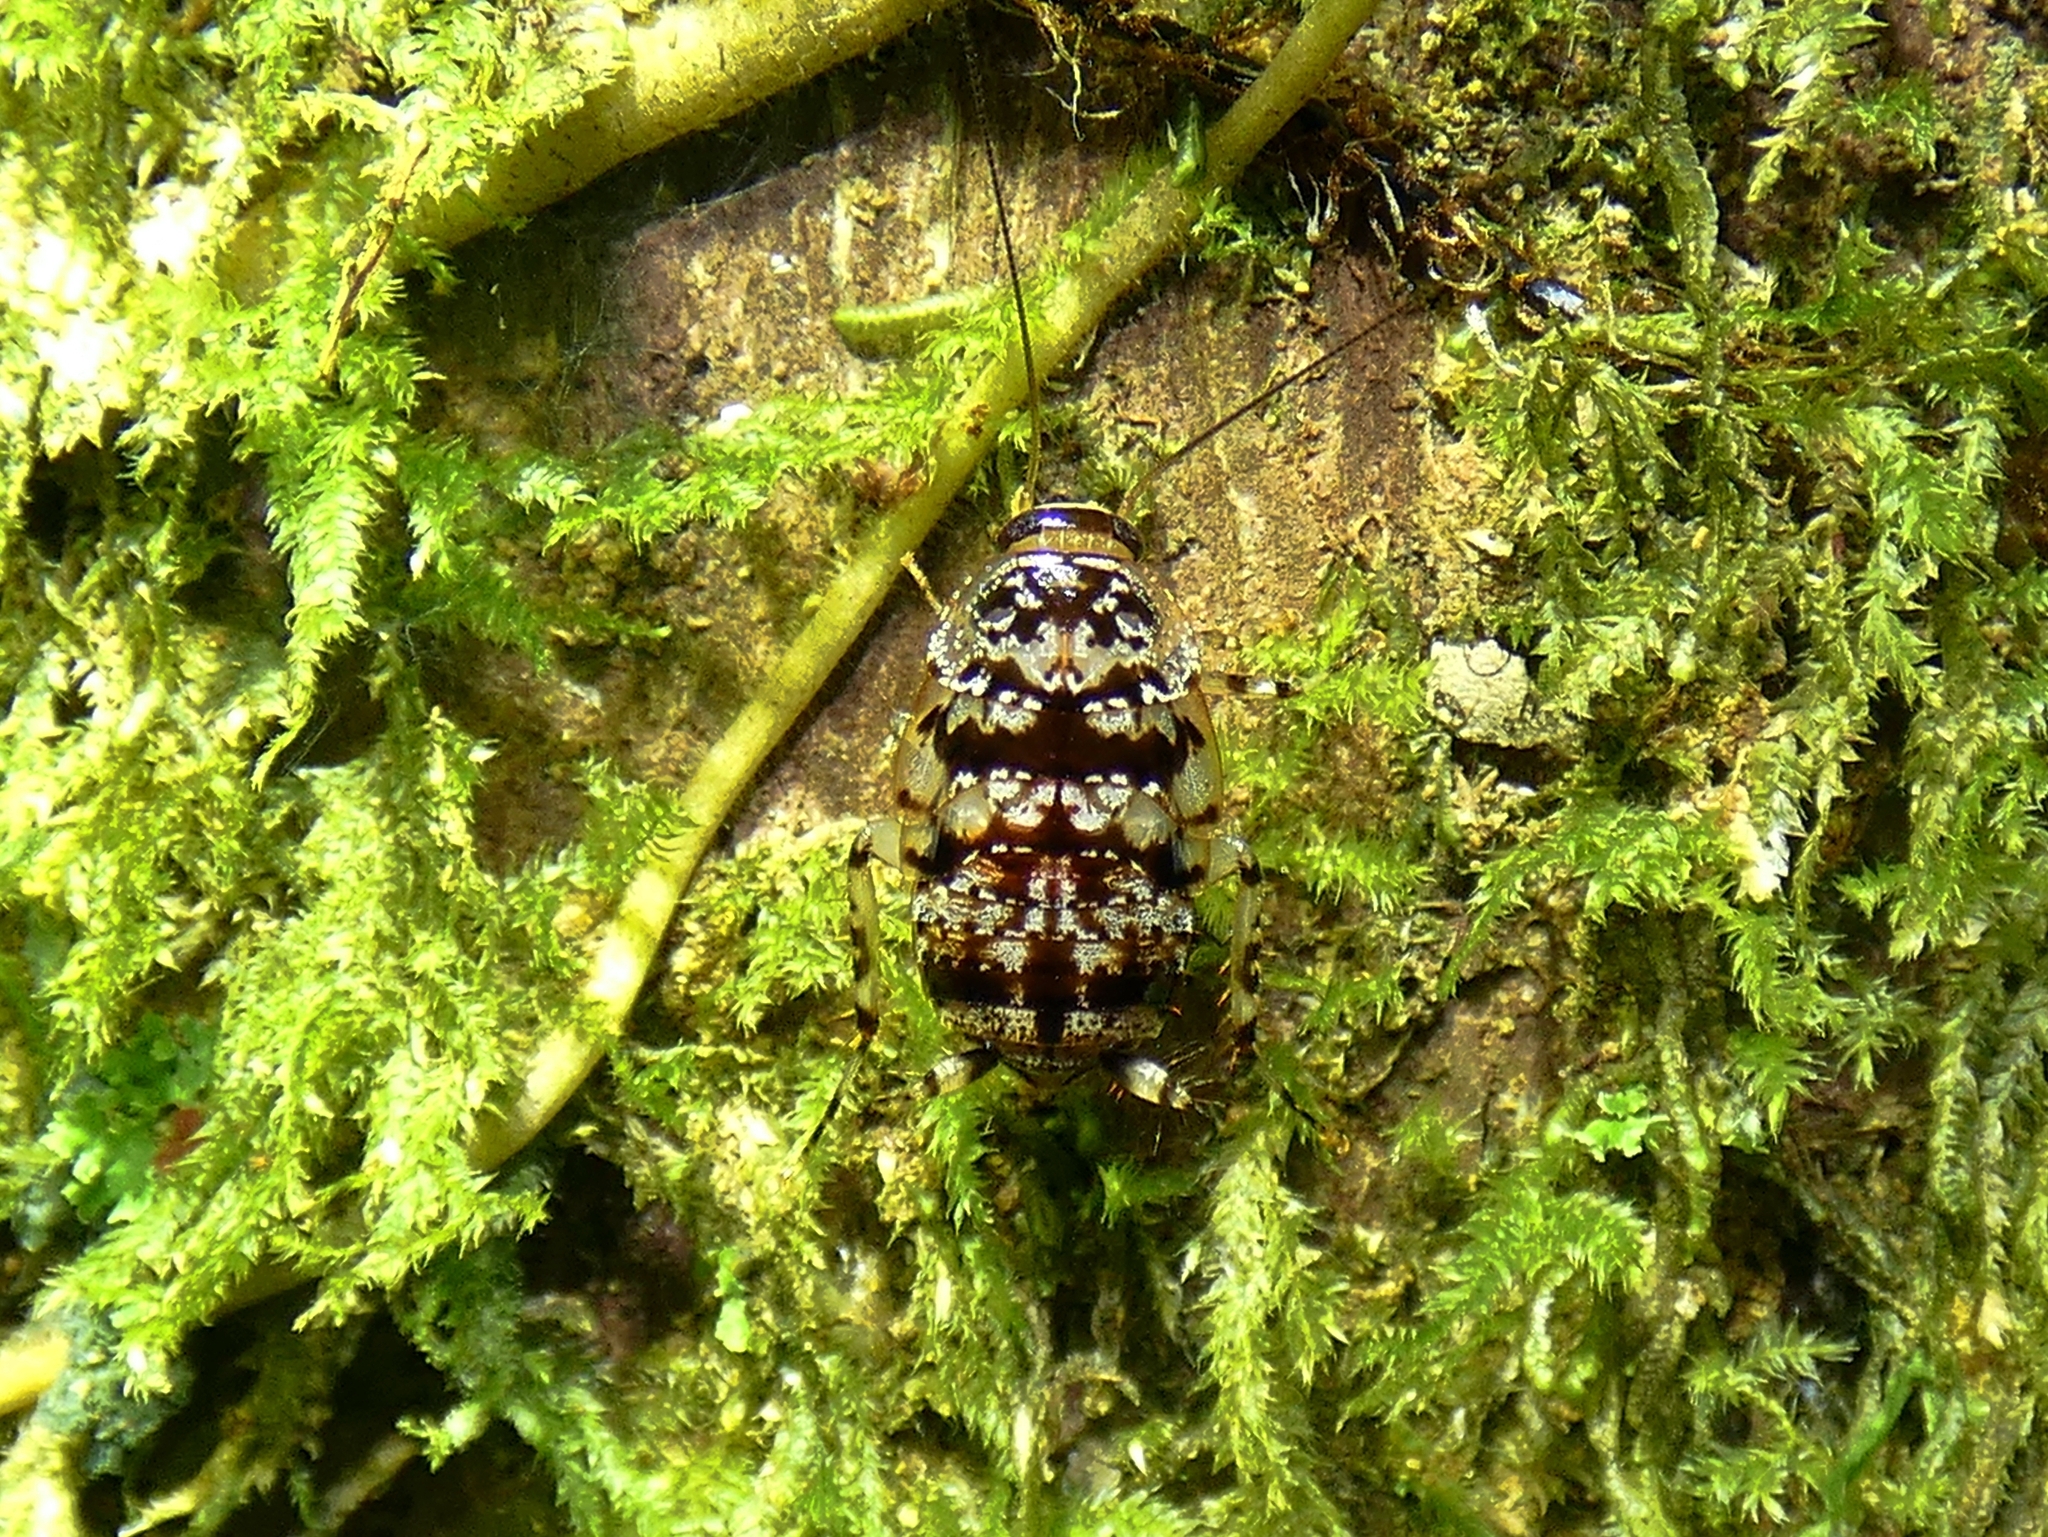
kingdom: Animalia
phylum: Arthropoda
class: Insecta
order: Blattodea
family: Ectobiidae
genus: Allacta
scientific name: Allacta australiensis
